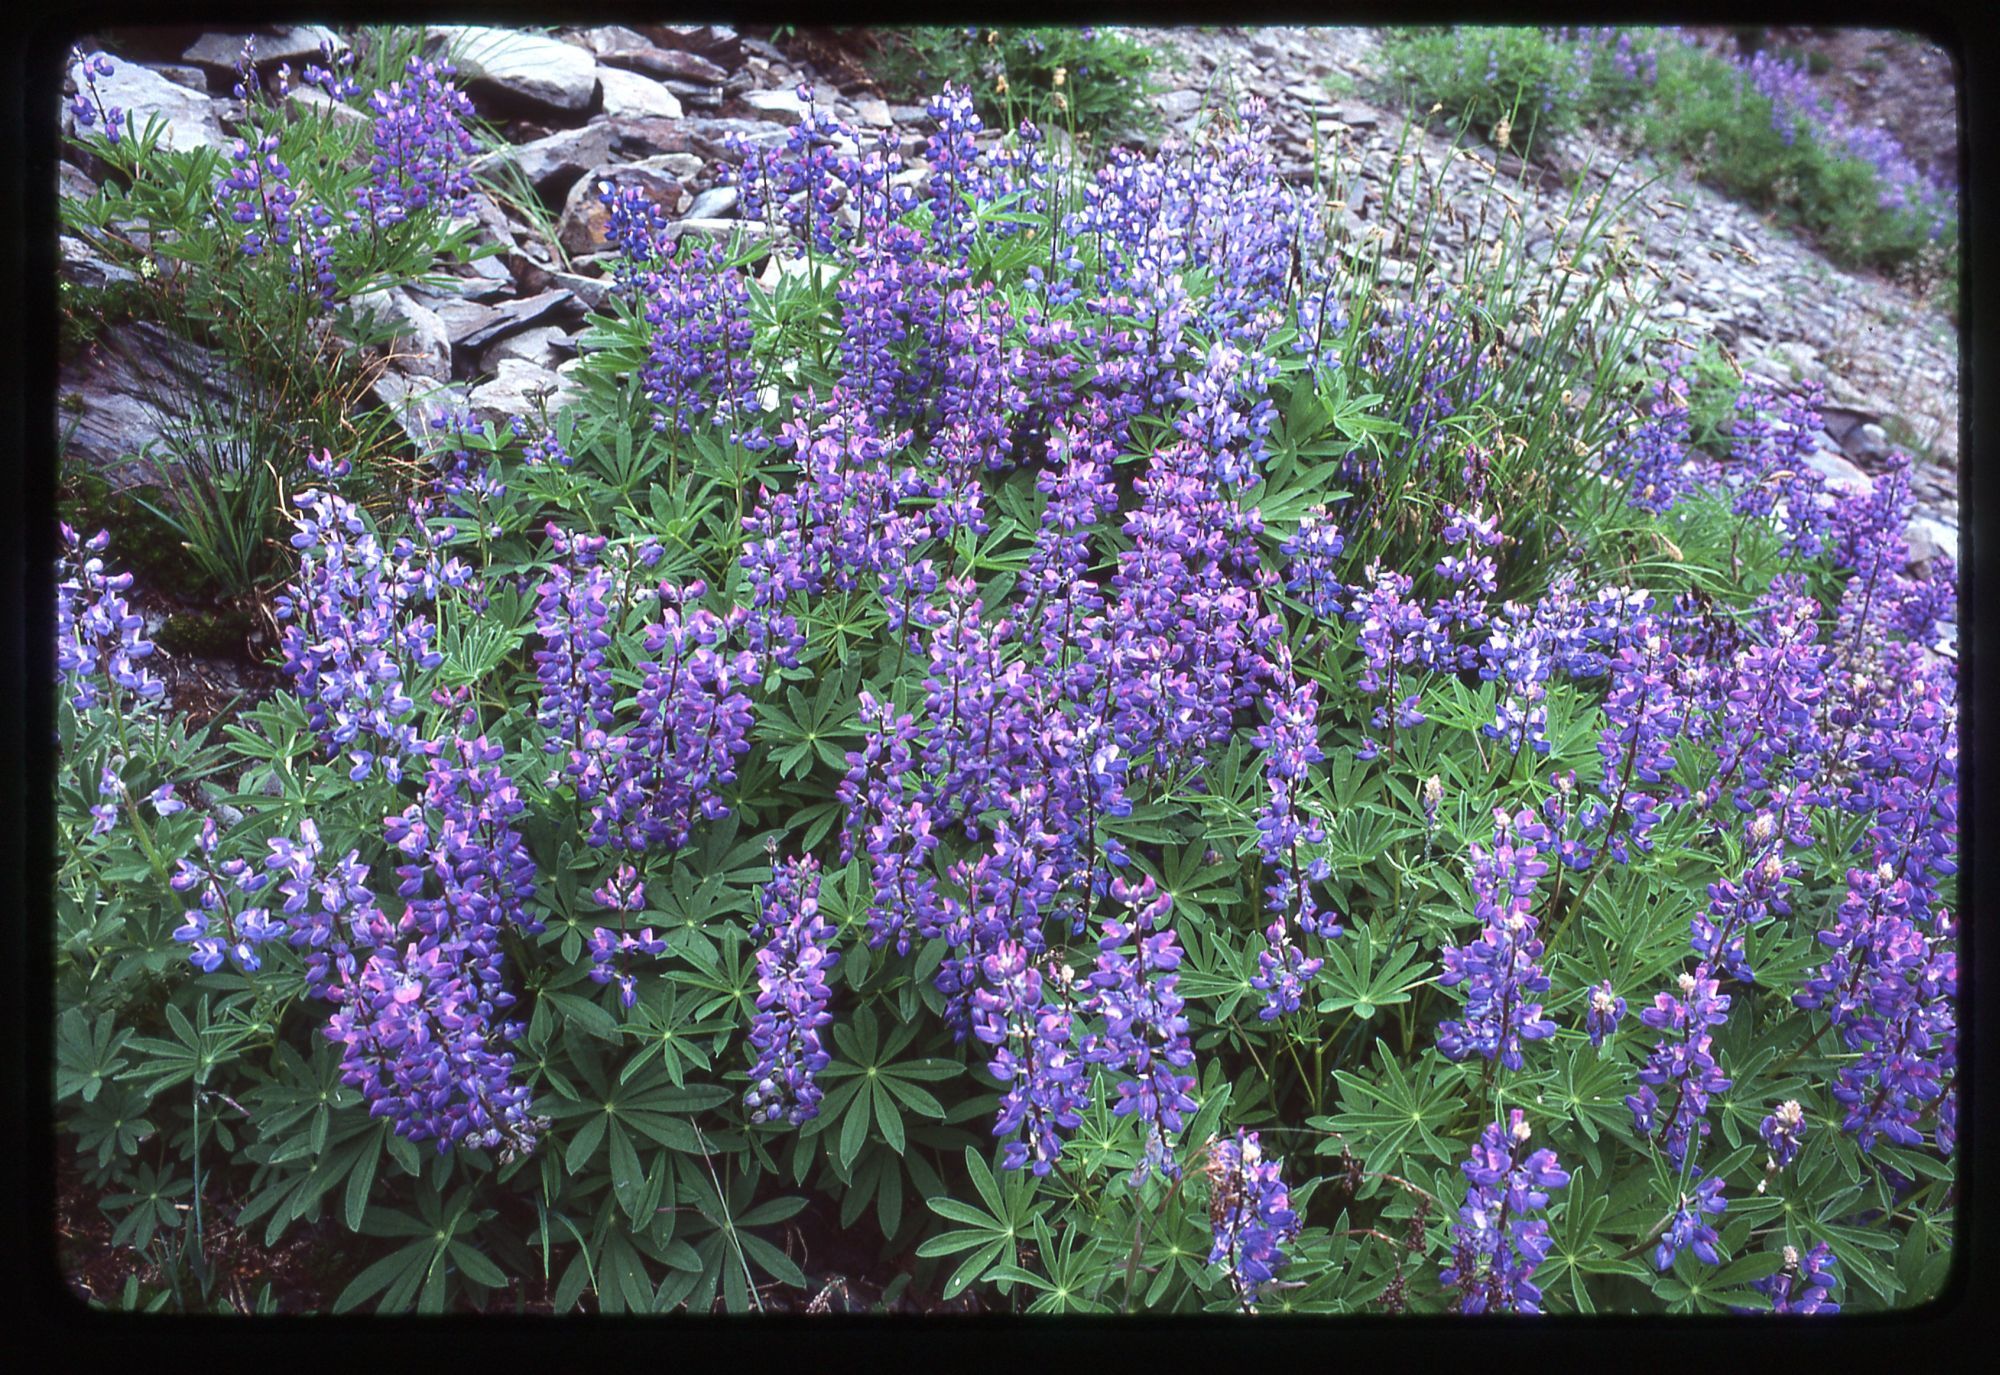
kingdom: Plantae
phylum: Tracheophyta
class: Magnoliopsida
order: Fabales
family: Fabaceae
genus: Lupinus
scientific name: Lupinus latifolius
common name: Broad-leaved lupine
